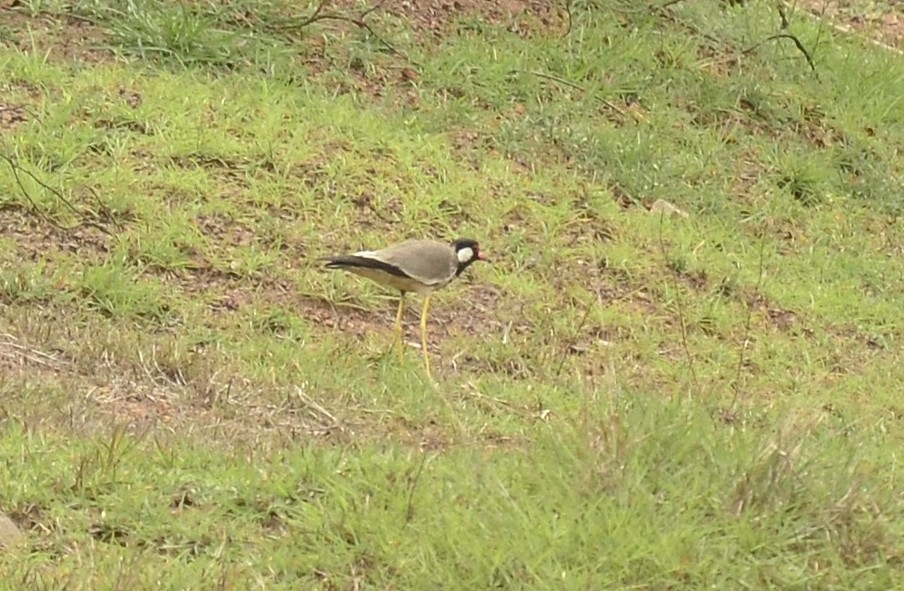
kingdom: Animalia
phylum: Chordata
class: Aves
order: Charadriiformes
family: Charadriidae
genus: Vanellus
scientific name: Vanellus indicus
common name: Red-wattled lapwing
